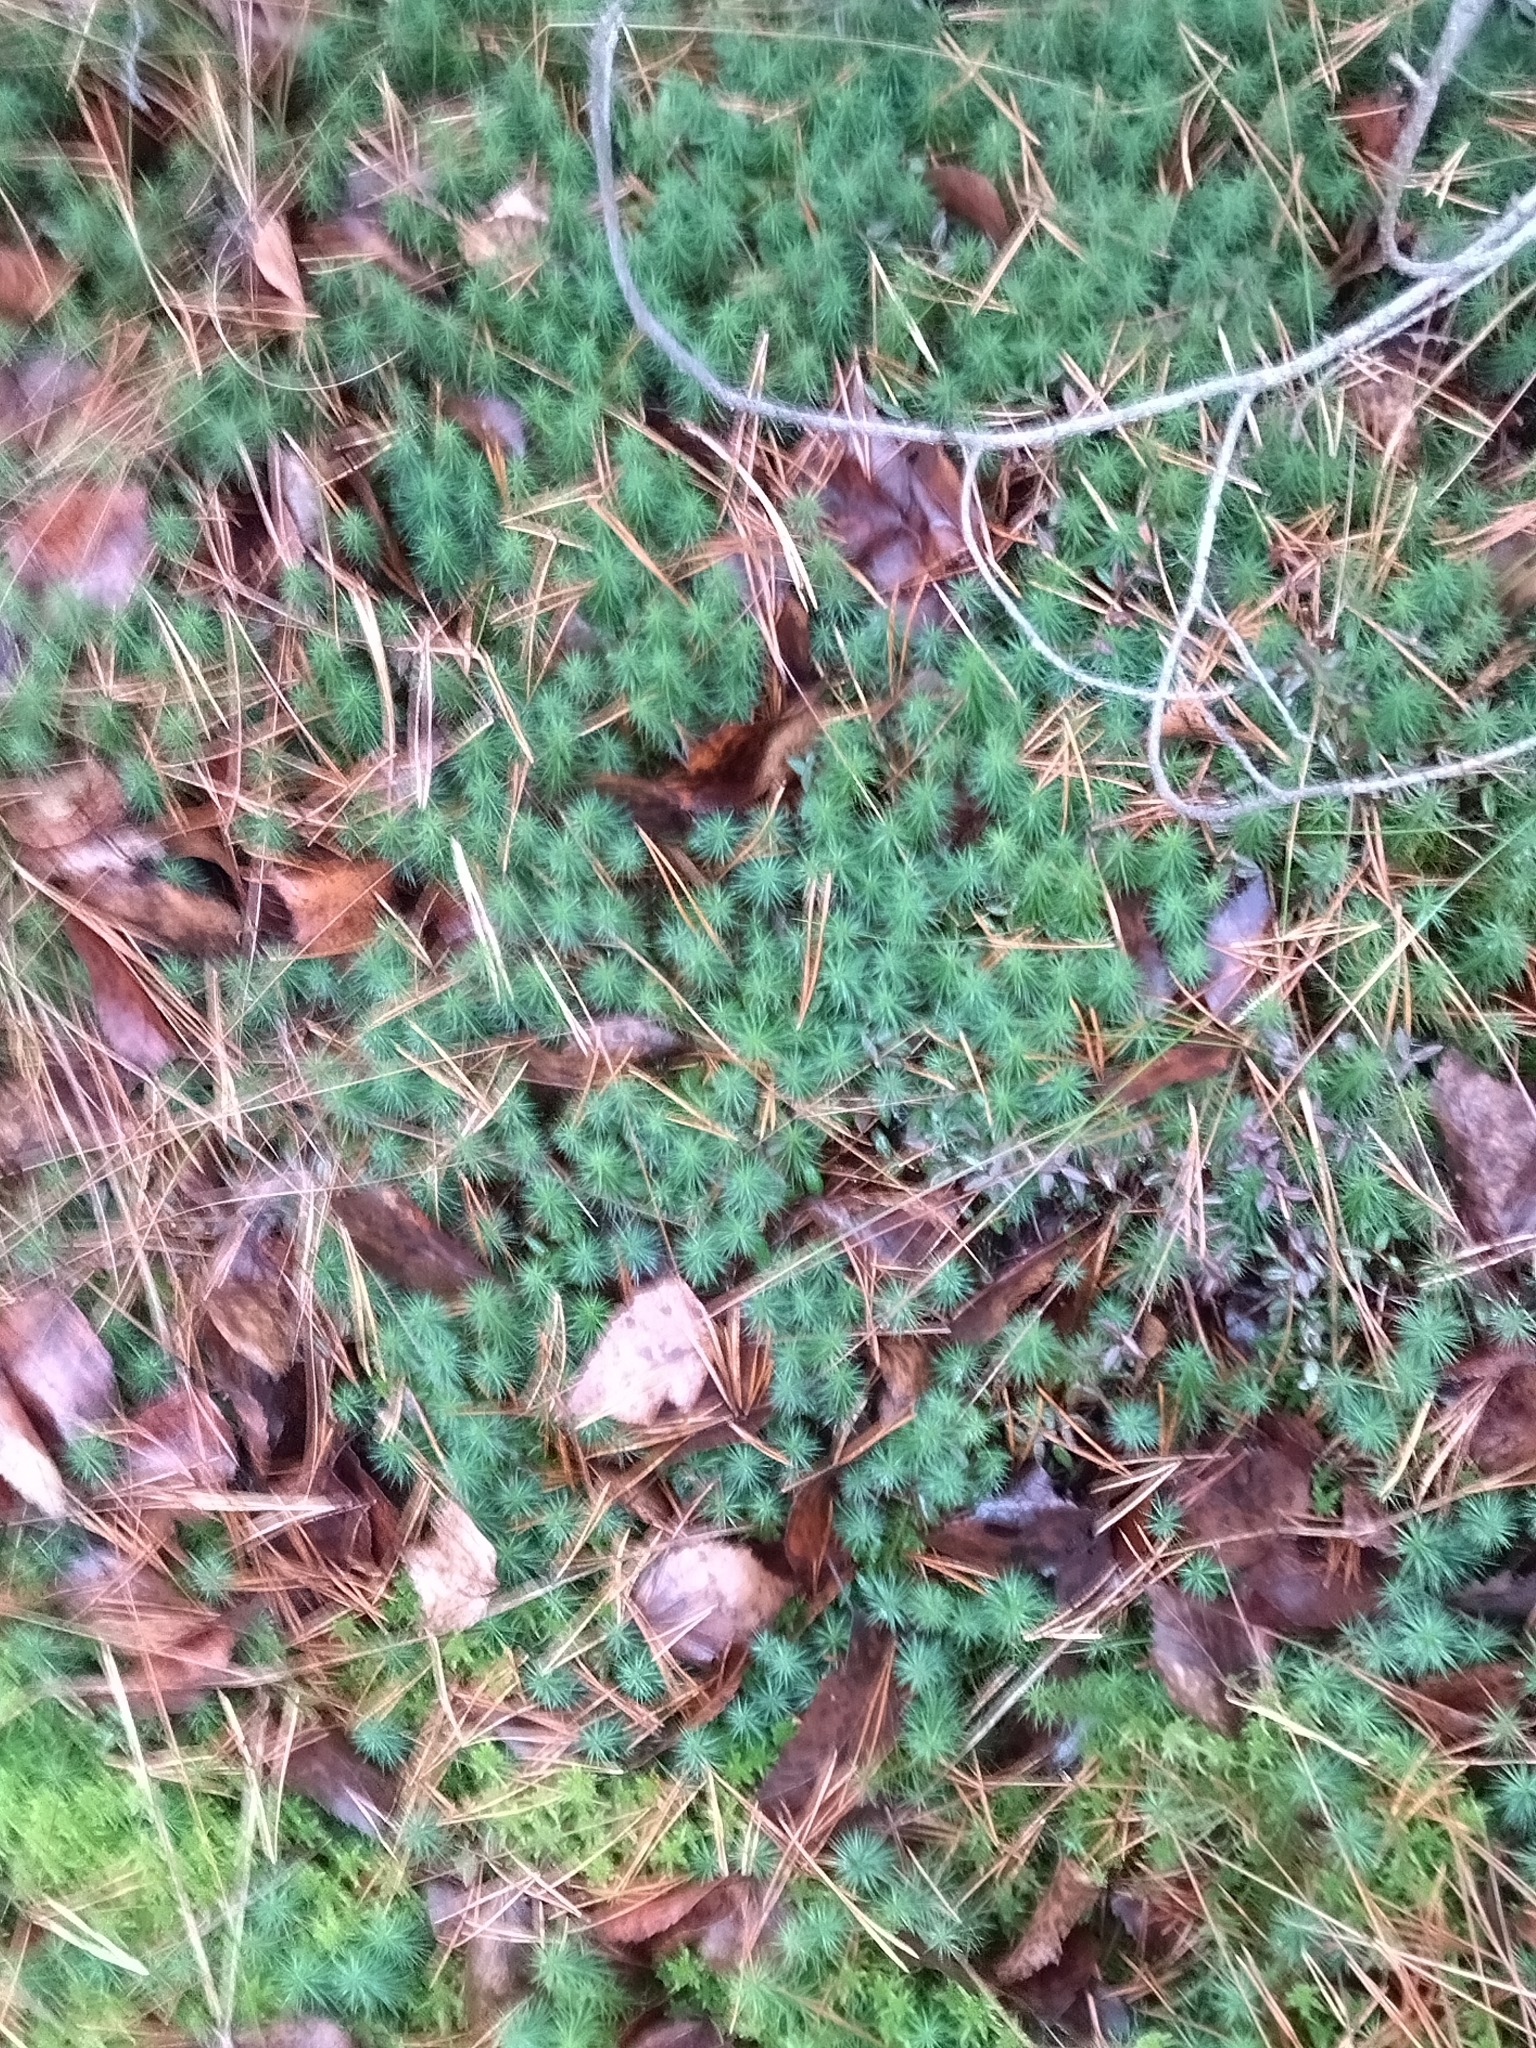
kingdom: Plantae
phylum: Bryophyta
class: Polytrichopsida
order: Polytrichales
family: Polytrichaceae
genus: Polytrichum
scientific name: Polytrichum commune
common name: Common haircap
